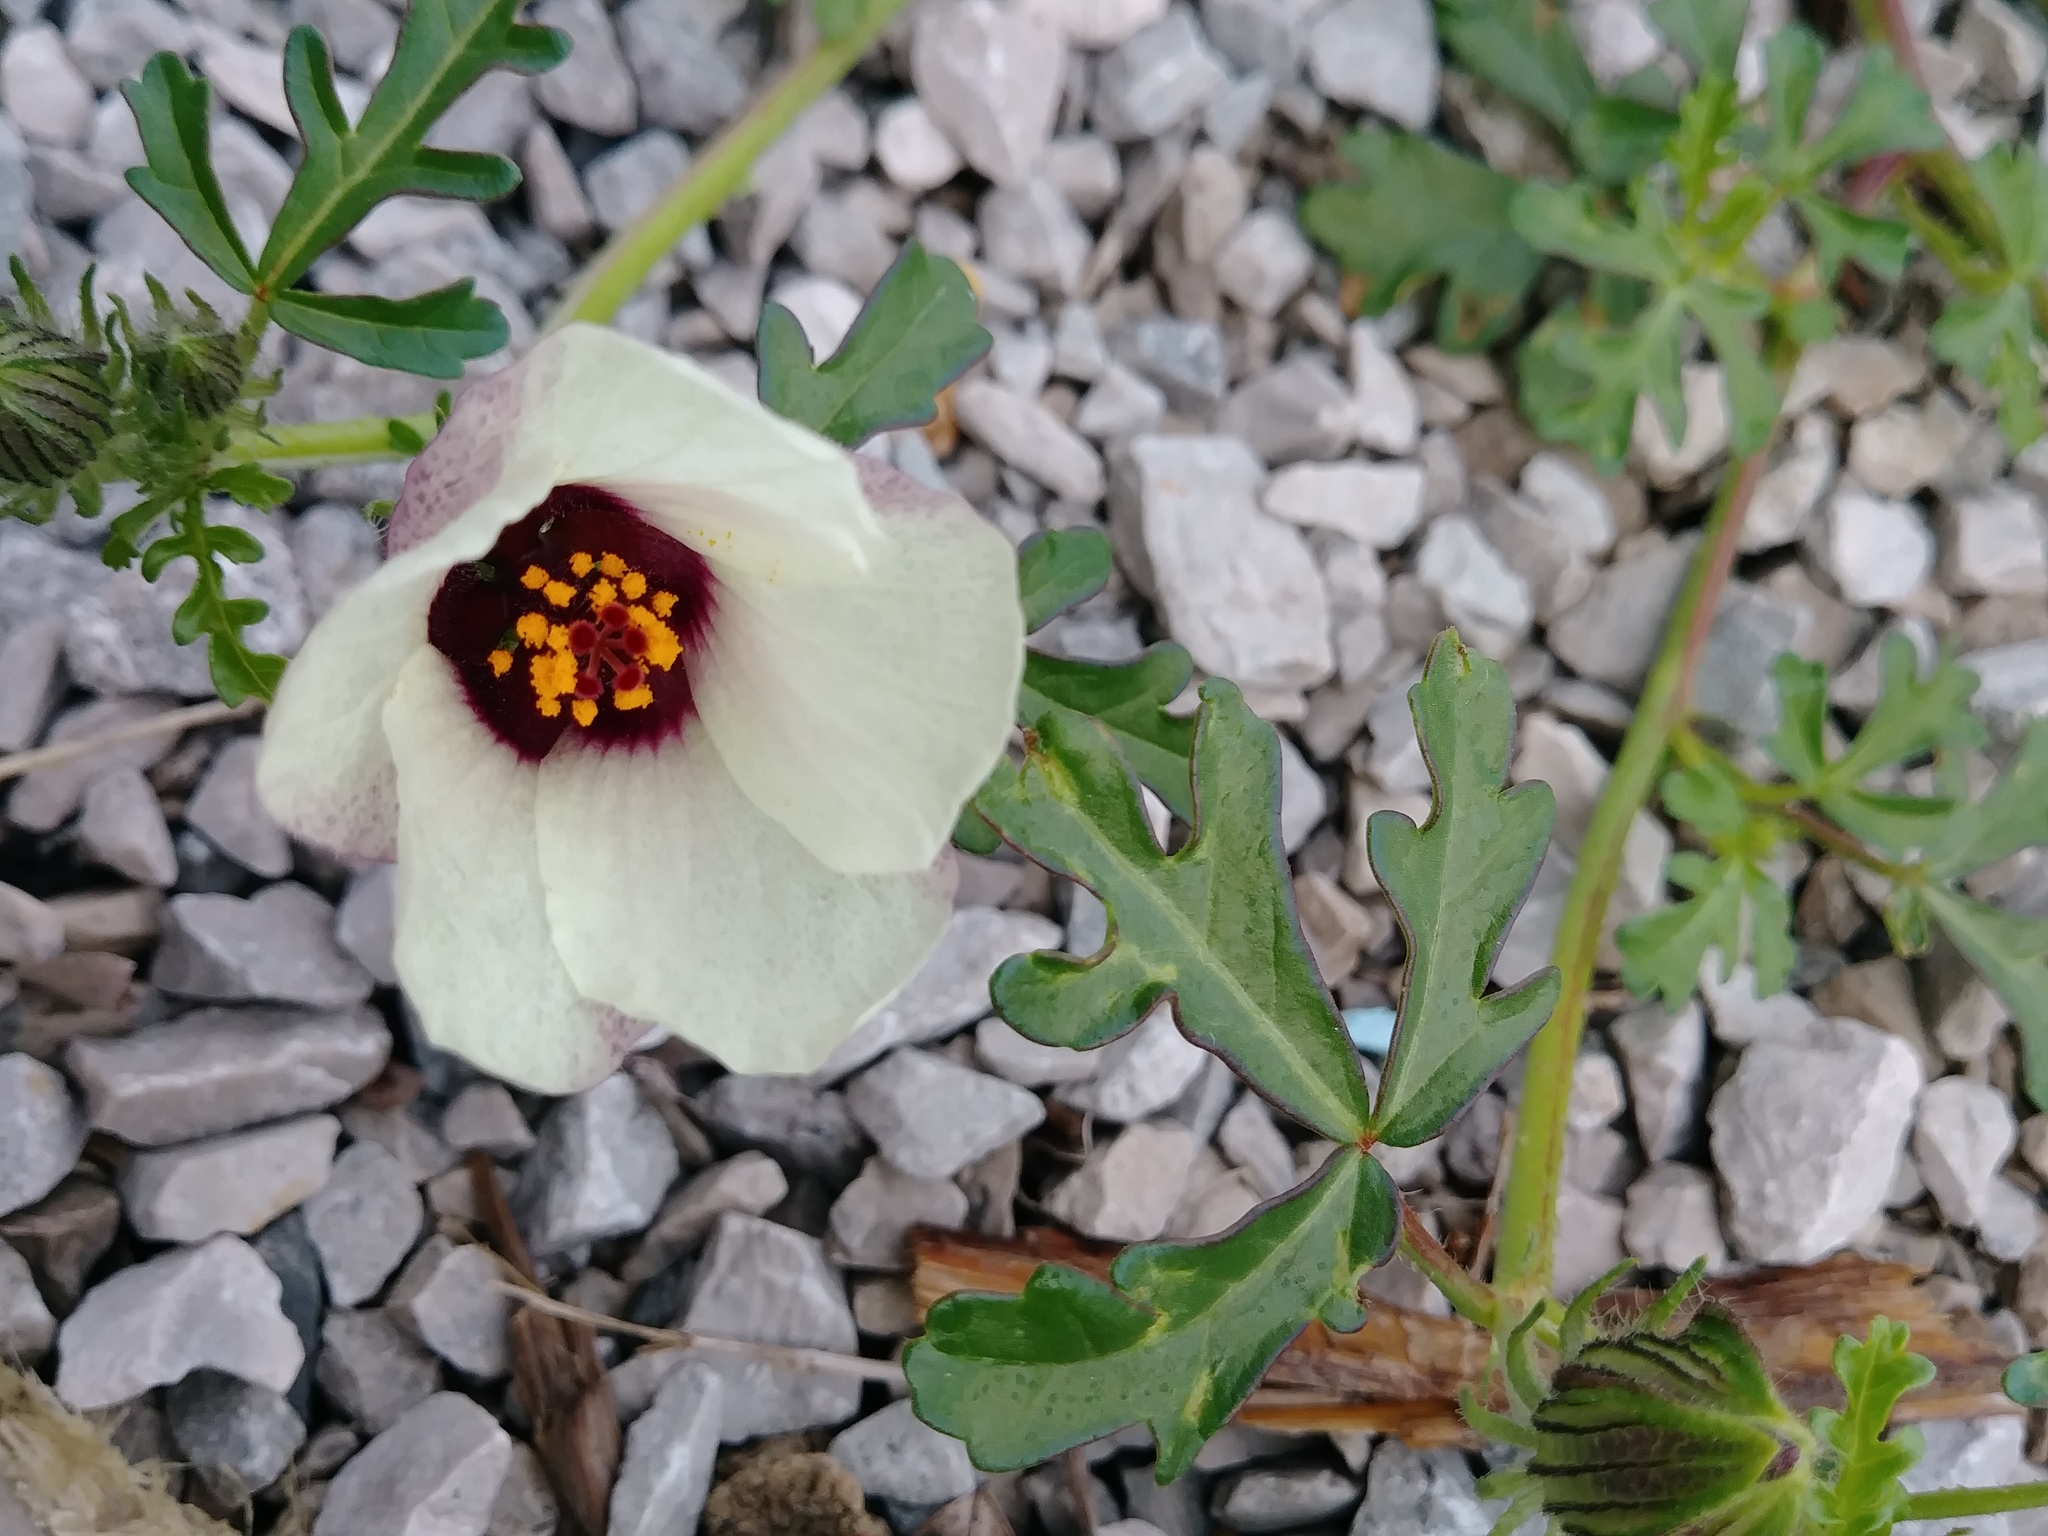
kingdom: Plantae
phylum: Tracheophyta
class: Magnoliopsida
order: Malvales
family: Malvaceae
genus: Hibiscus
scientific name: Hibiscus trionum
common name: Bladder ketmia
